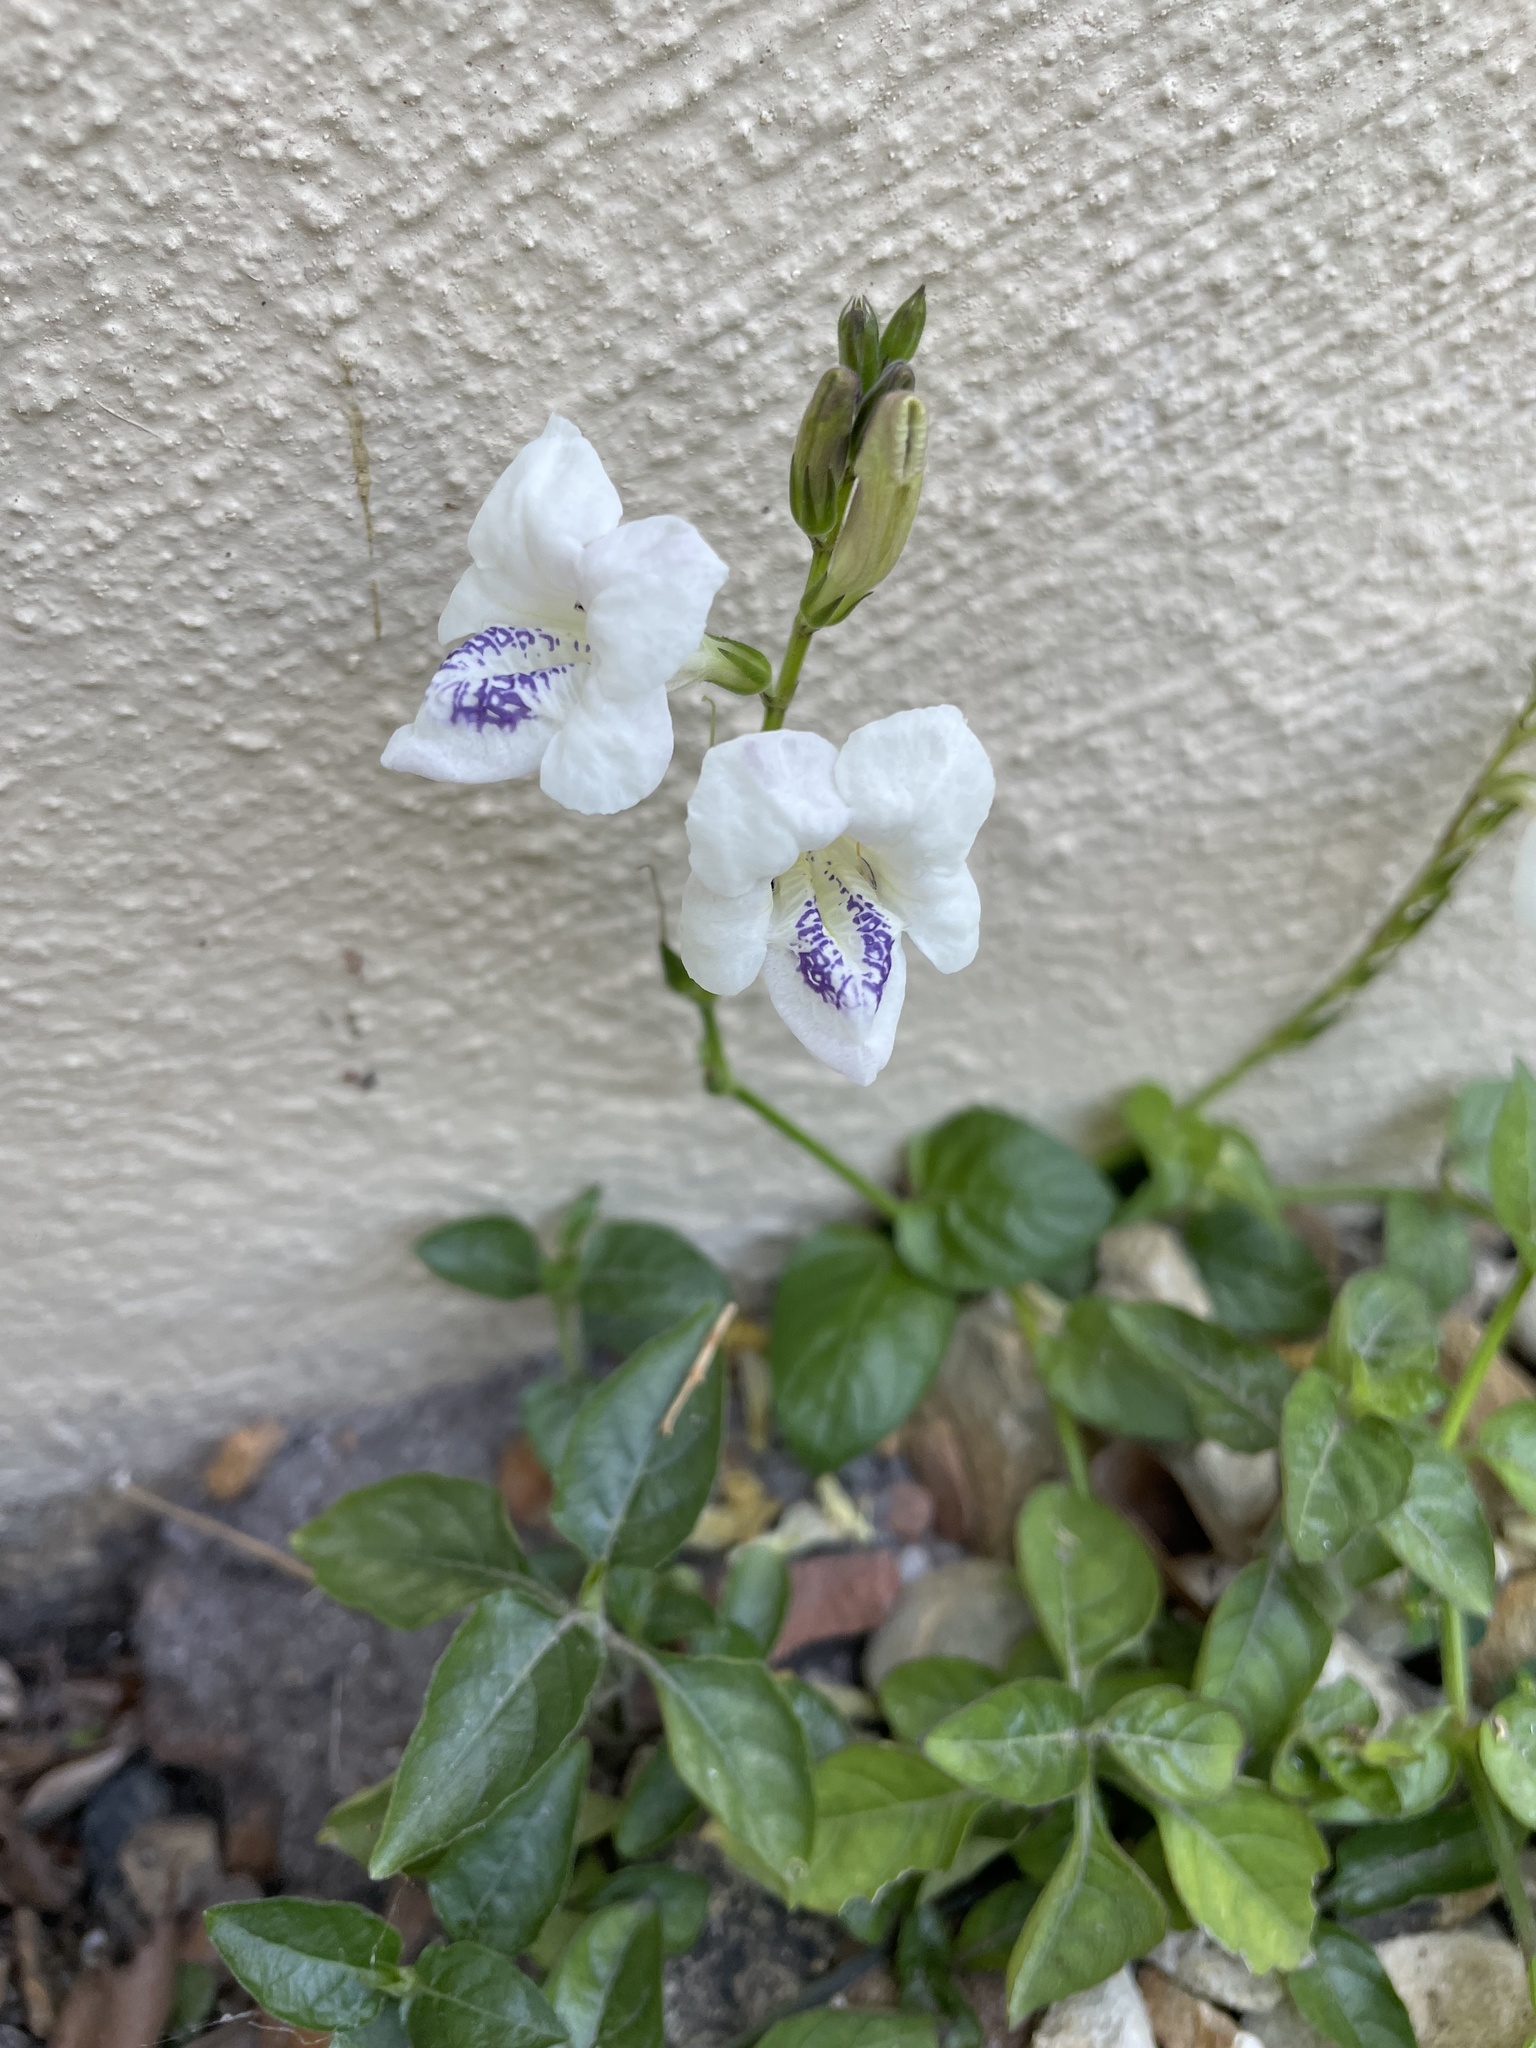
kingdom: Plantae
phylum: Tracheophyta
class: Magnoliopsida
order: Lamiales
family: Acanthaceae
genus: Asystasia
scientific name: Asystasia intrusa
